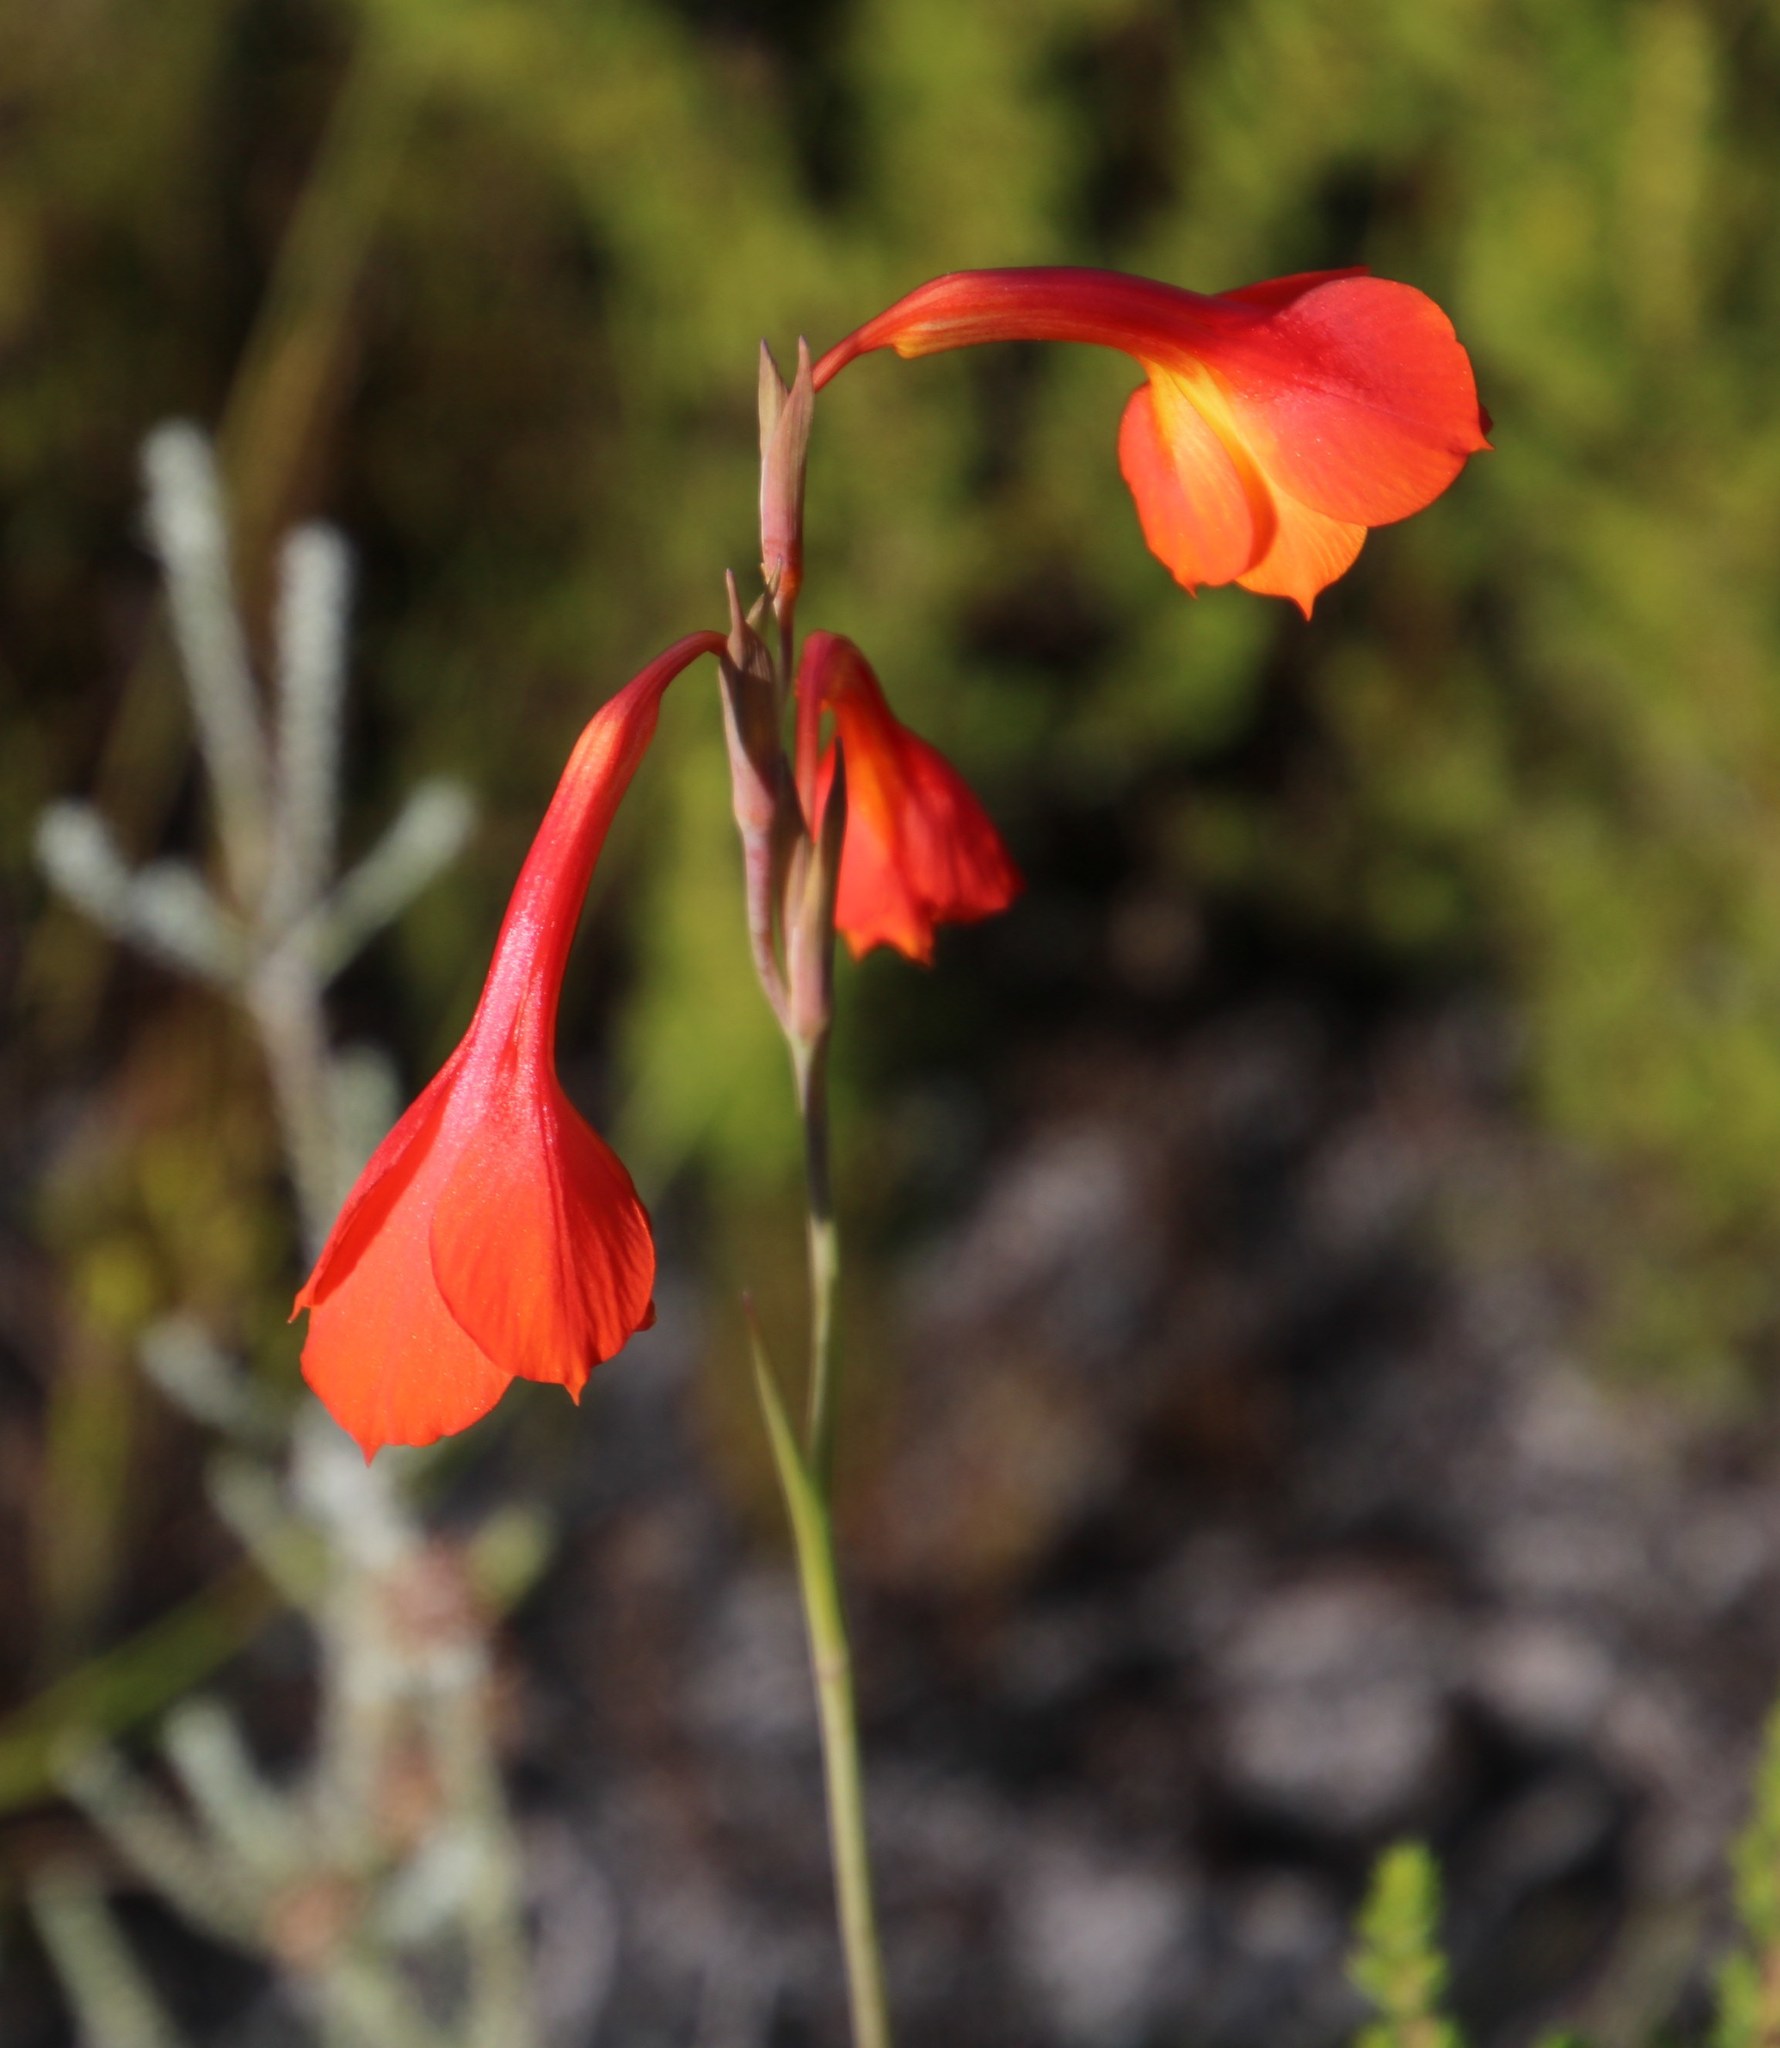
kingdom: Plantae
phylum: Tracheophyta
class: Liliopsida
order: Asparagales
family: Iridaceae
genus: Gladiolus
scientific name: Gladiolus merianellus
